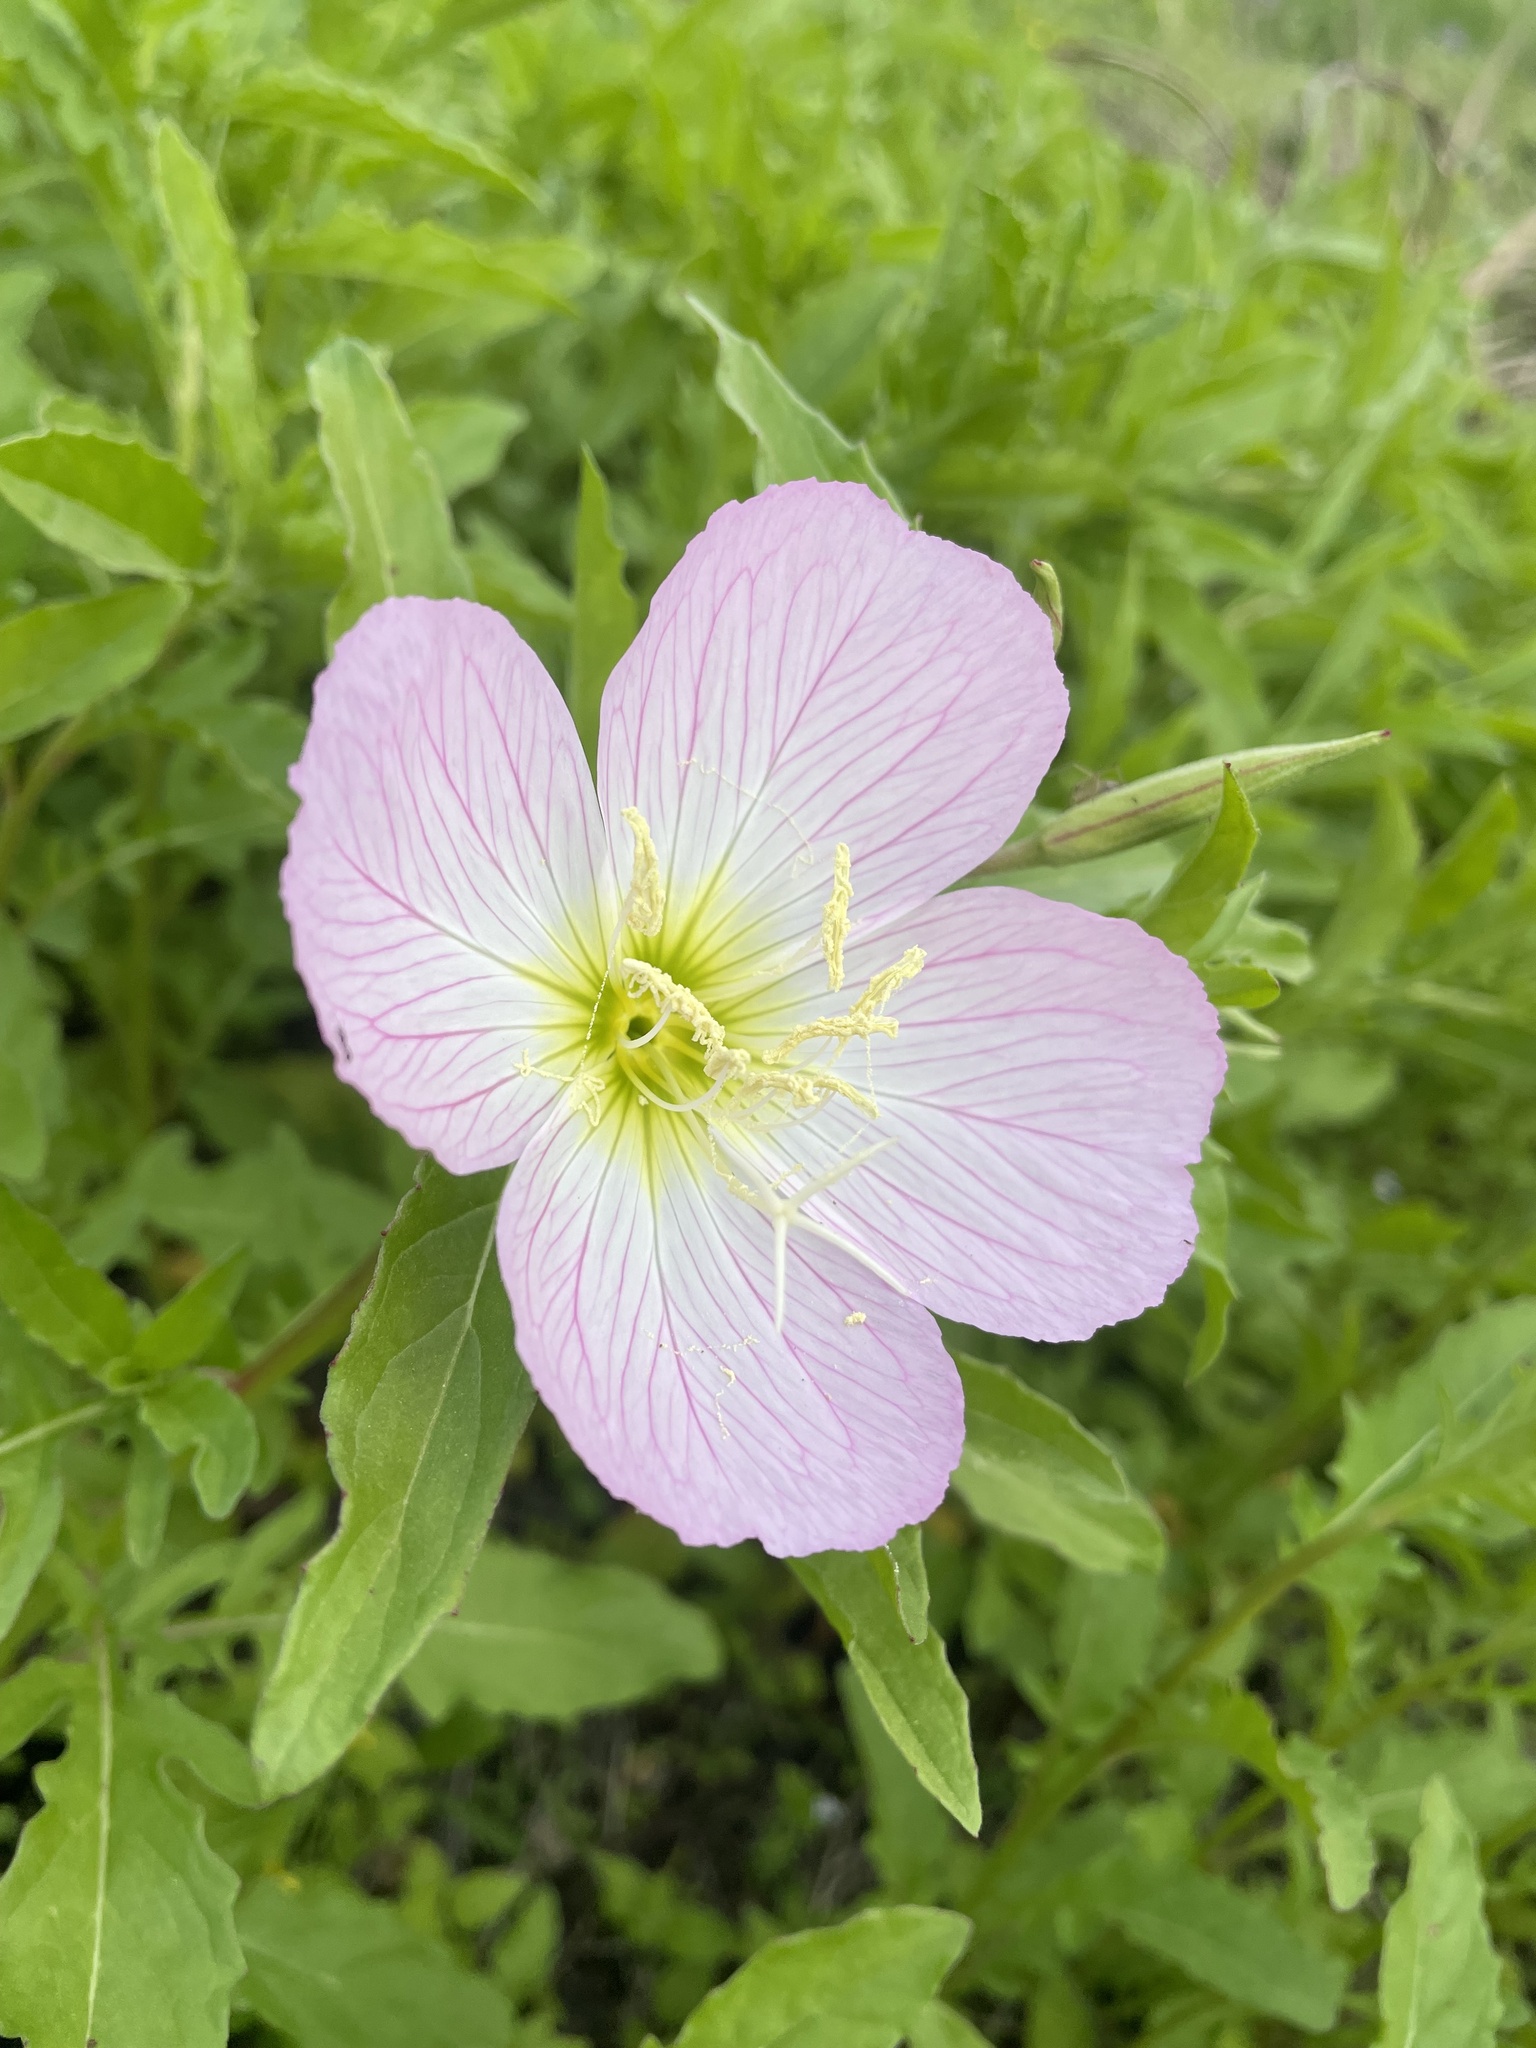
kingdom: Plantae
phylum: Tracheophyta
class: Magnoliopsida
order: Myrtales
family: Onagraceae
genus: Oenothera
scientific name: Oenothera speciosa
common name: White evening-primrose
